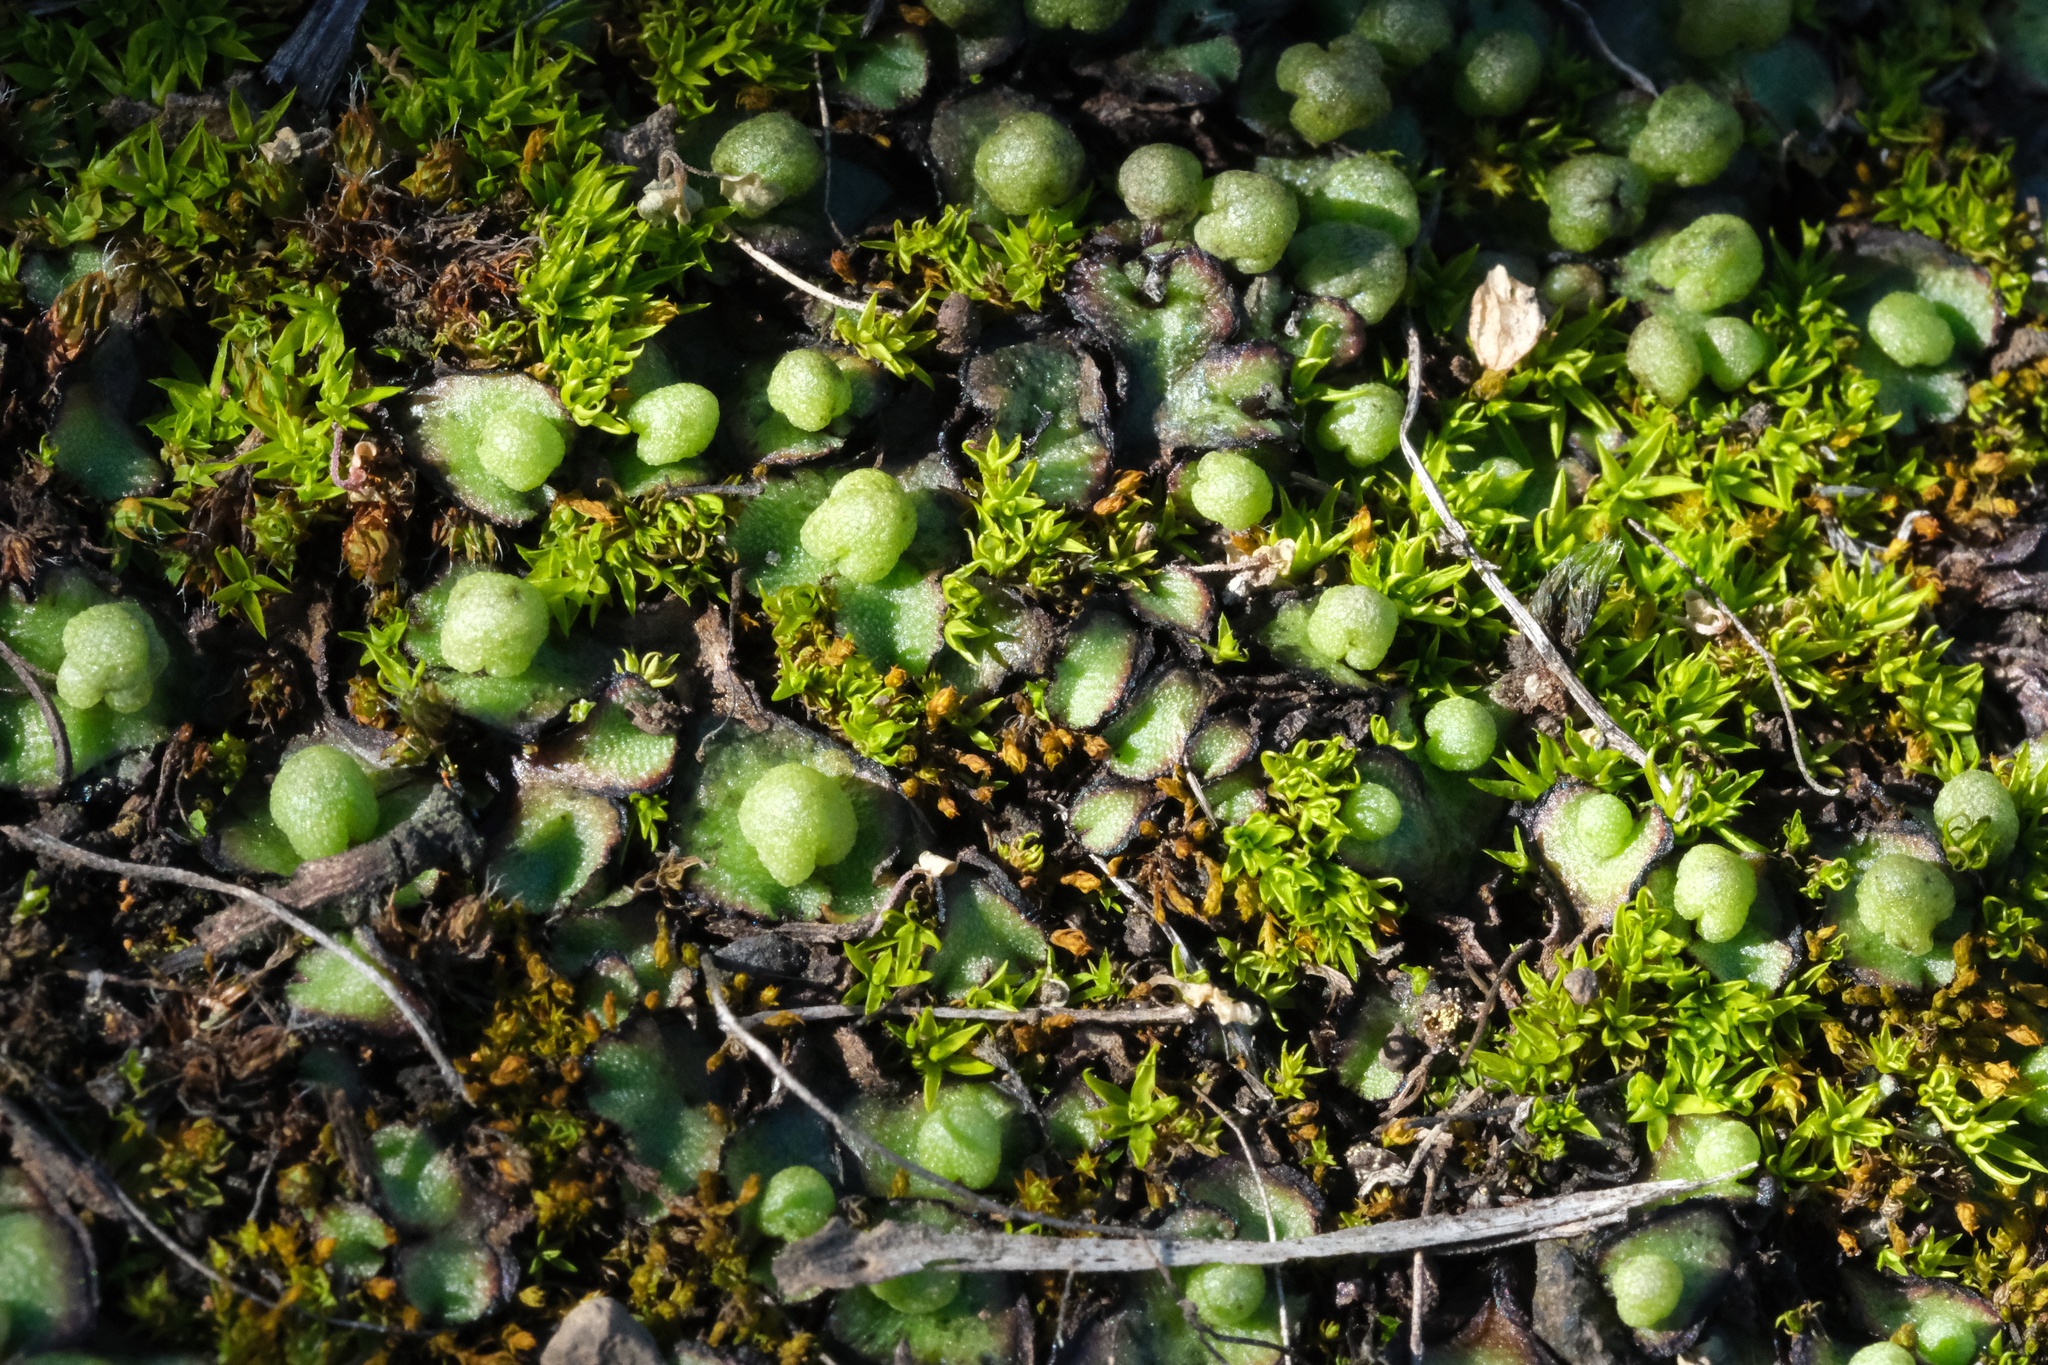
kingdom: Plantae
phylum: Marchantiophyta
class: Marchantiopsida
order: Marchantiales
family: Aytoniaceae
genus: Asterella
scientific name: Asterella californica
